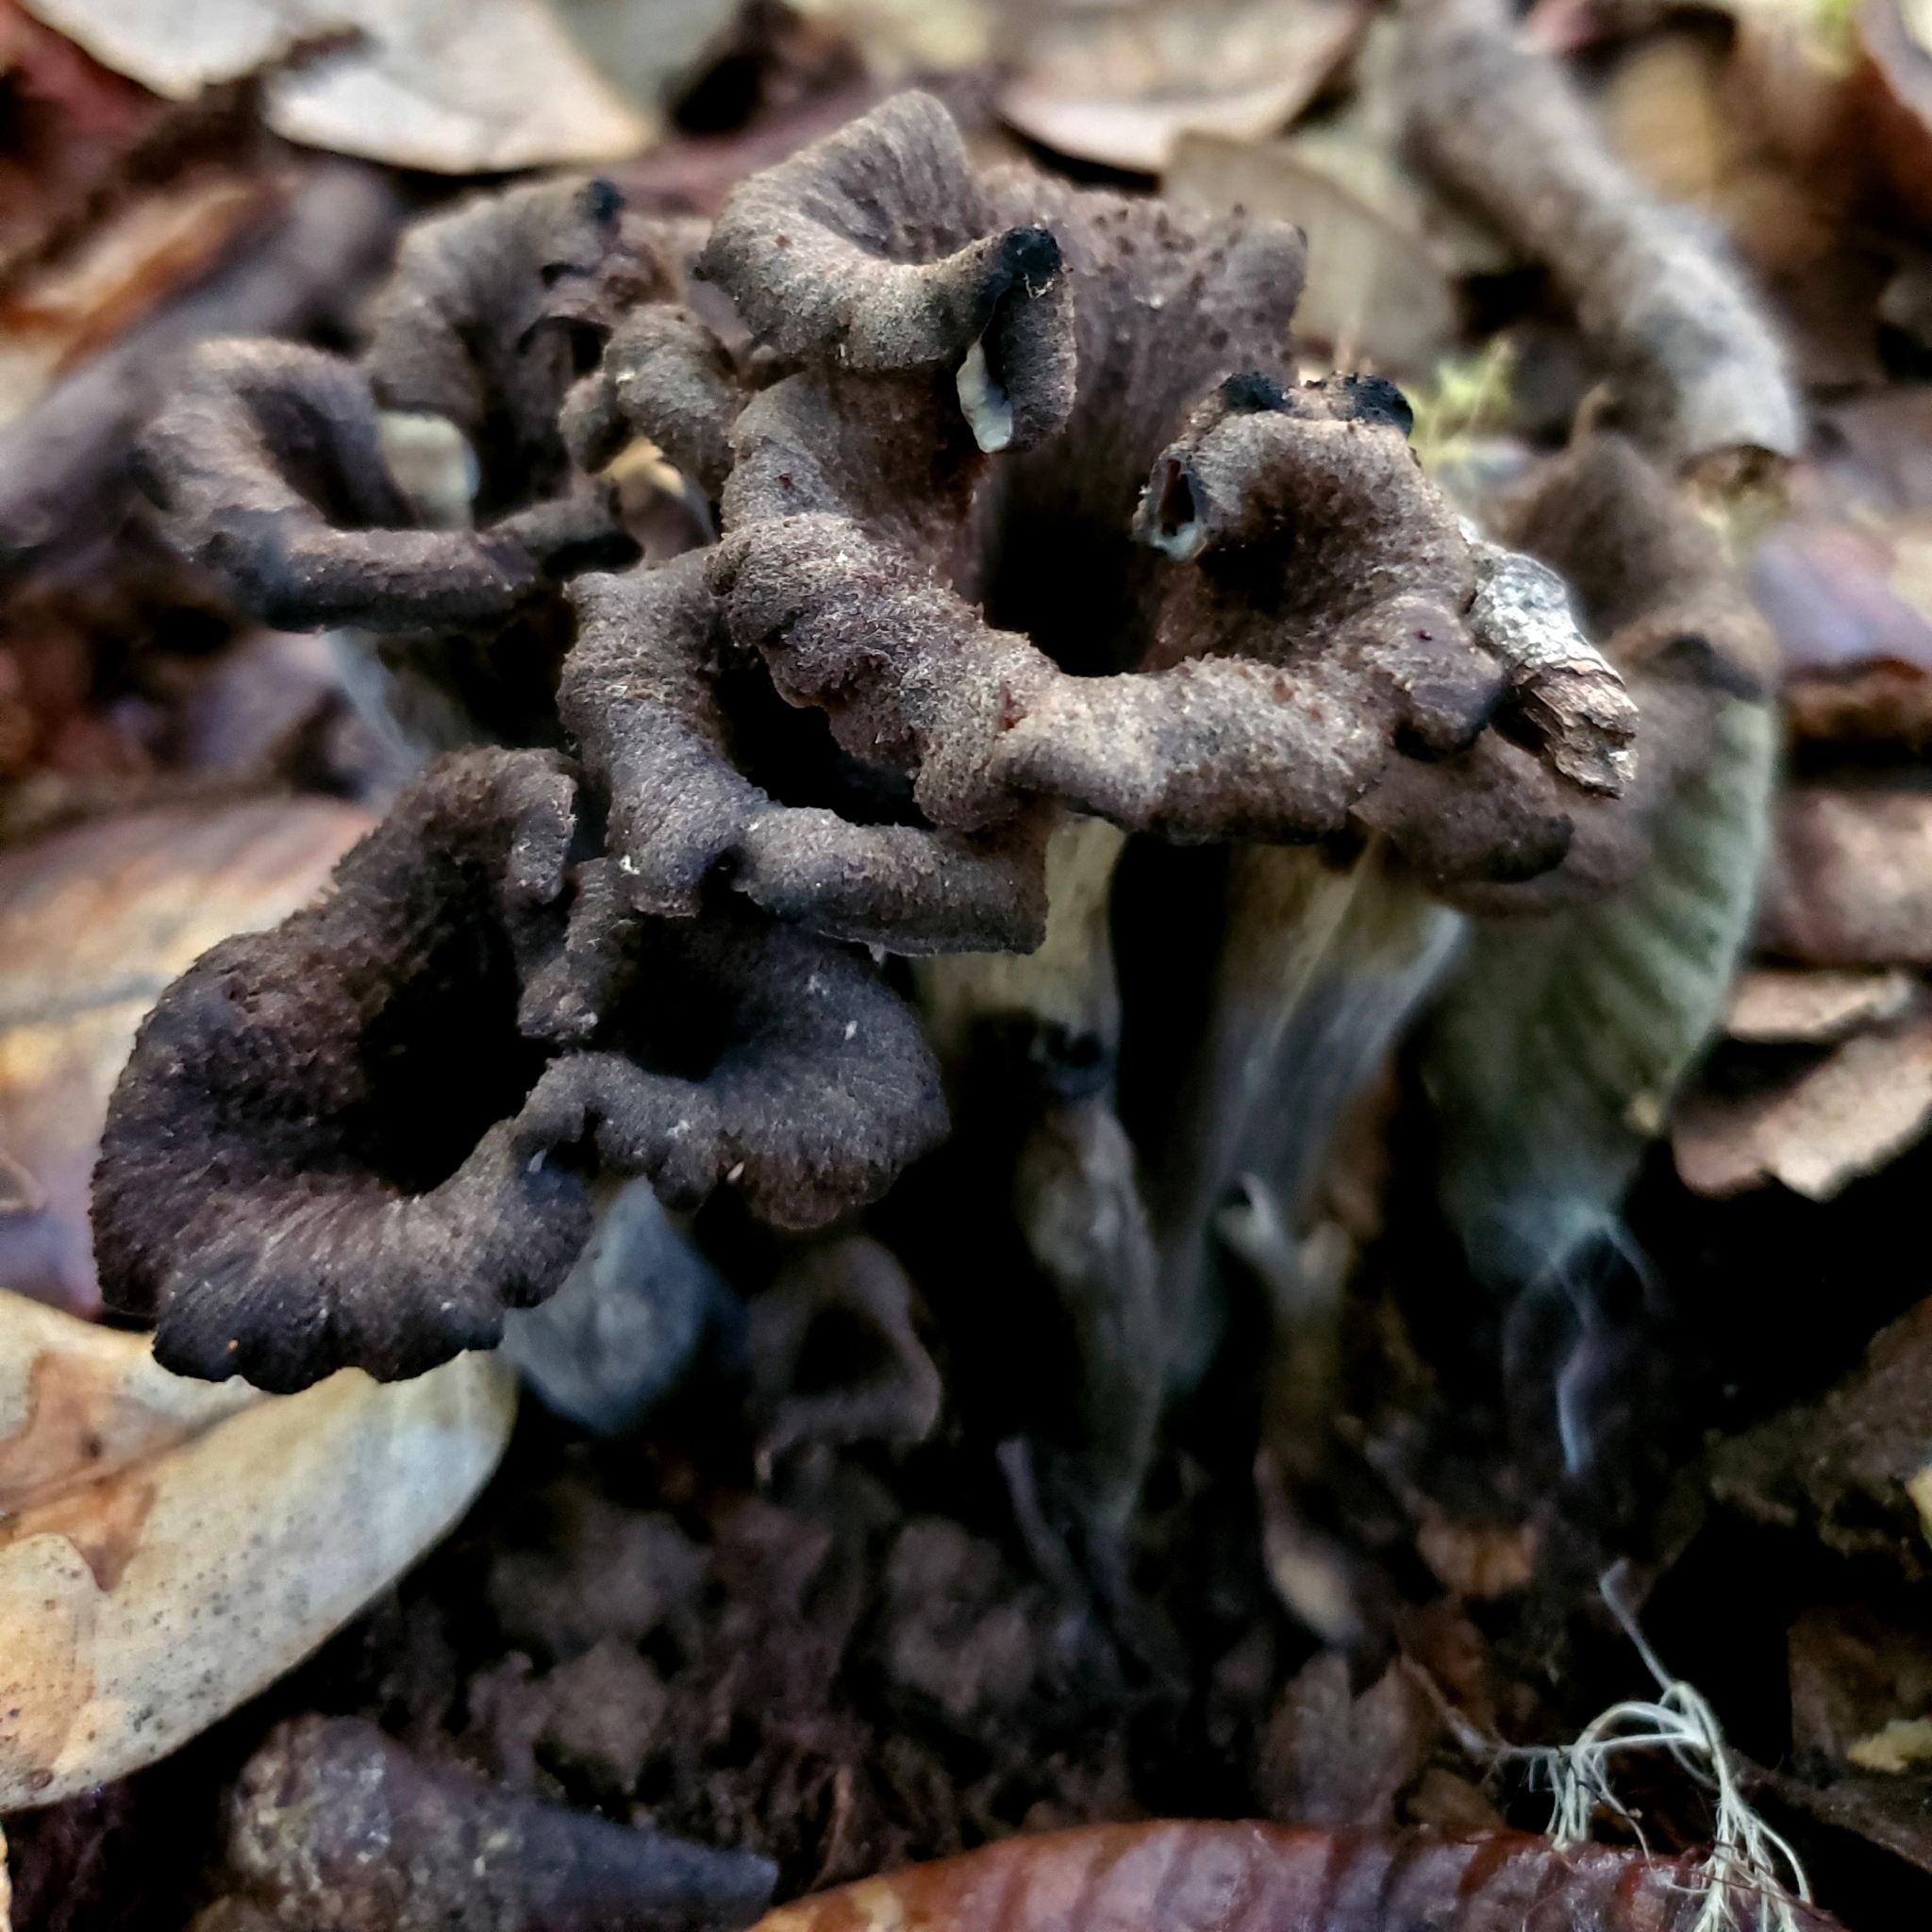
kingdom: Fungi
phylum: Basidiomycota
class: Agaricomycetes
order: Cantharellales
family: Hydnaceae
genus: Craterellus
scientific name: Craterellus calicornucopioides
